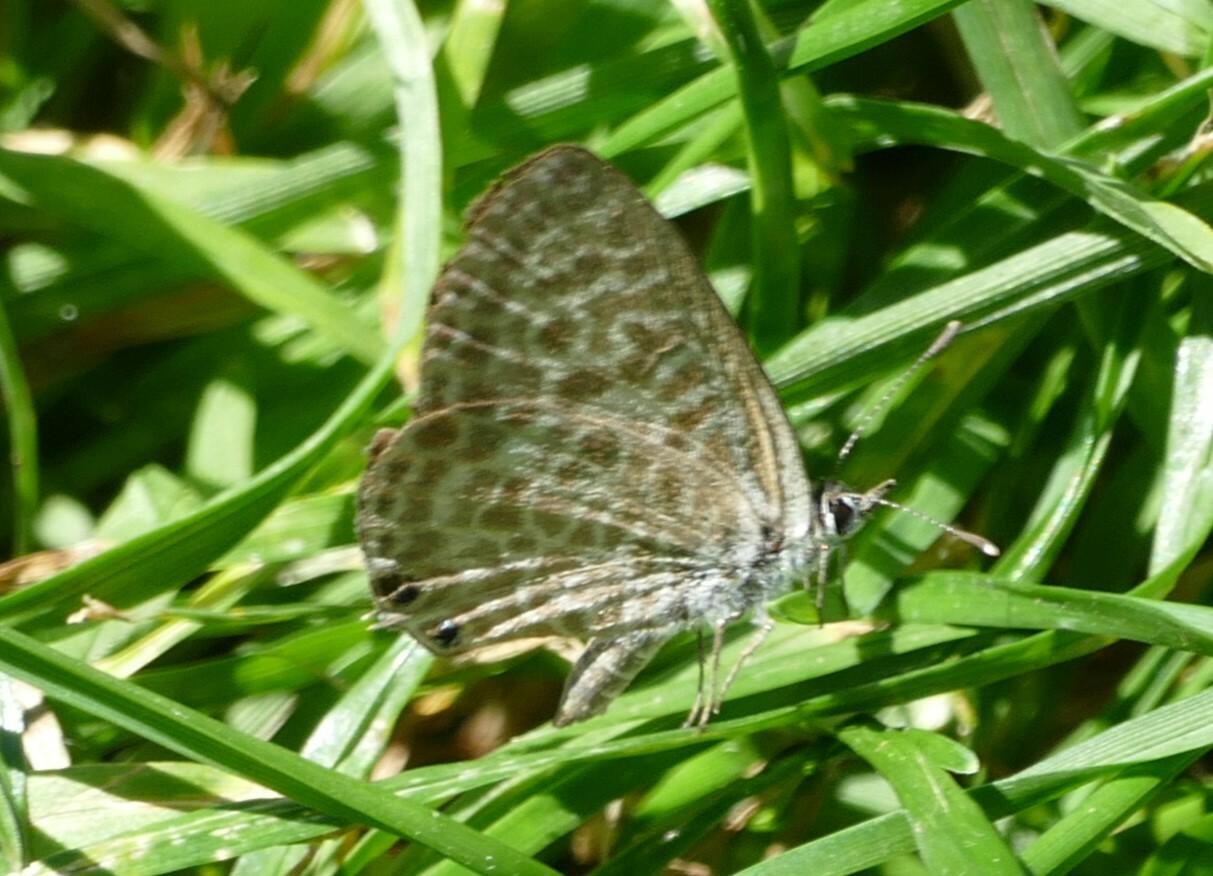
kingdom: Animalia
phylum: Arthropoda
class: Insecta
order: Lepidoptera
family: Lycaenidae
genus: Leptotes
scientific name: Leptotes pirithous
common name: Lang's short-tailed blue
